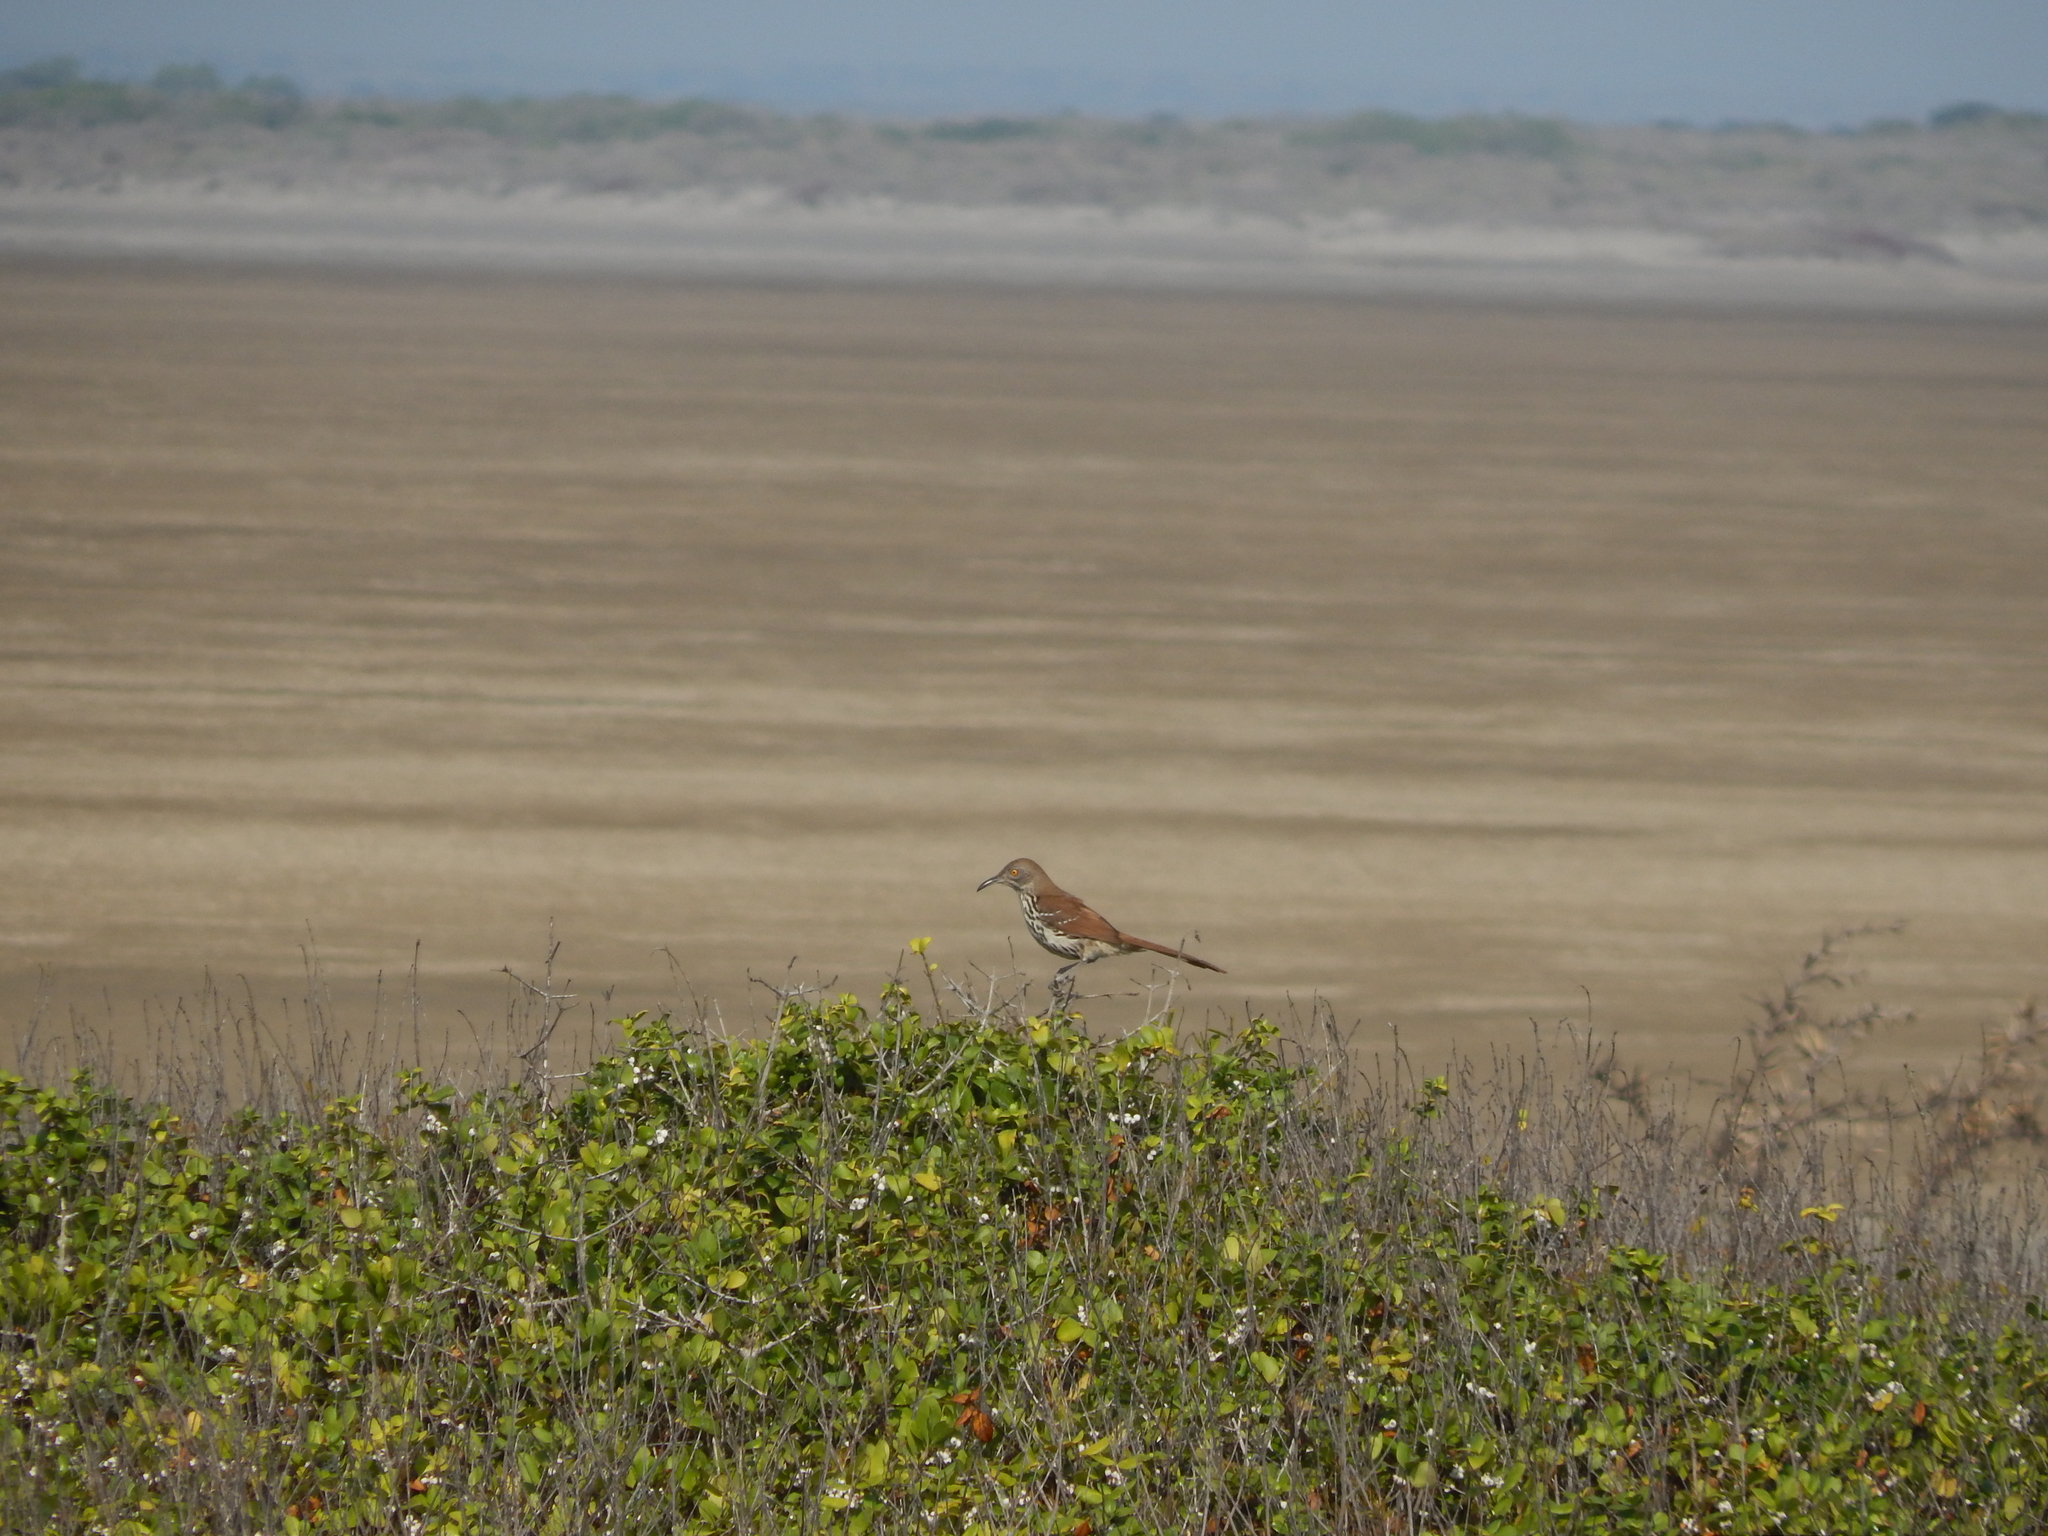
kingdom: Animalia
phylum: Chordata
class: Aves
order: Passeriformes
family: Mimidae
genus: Toxostoma
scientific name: Toxostoma longirostre
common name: Long-billed thrasher
